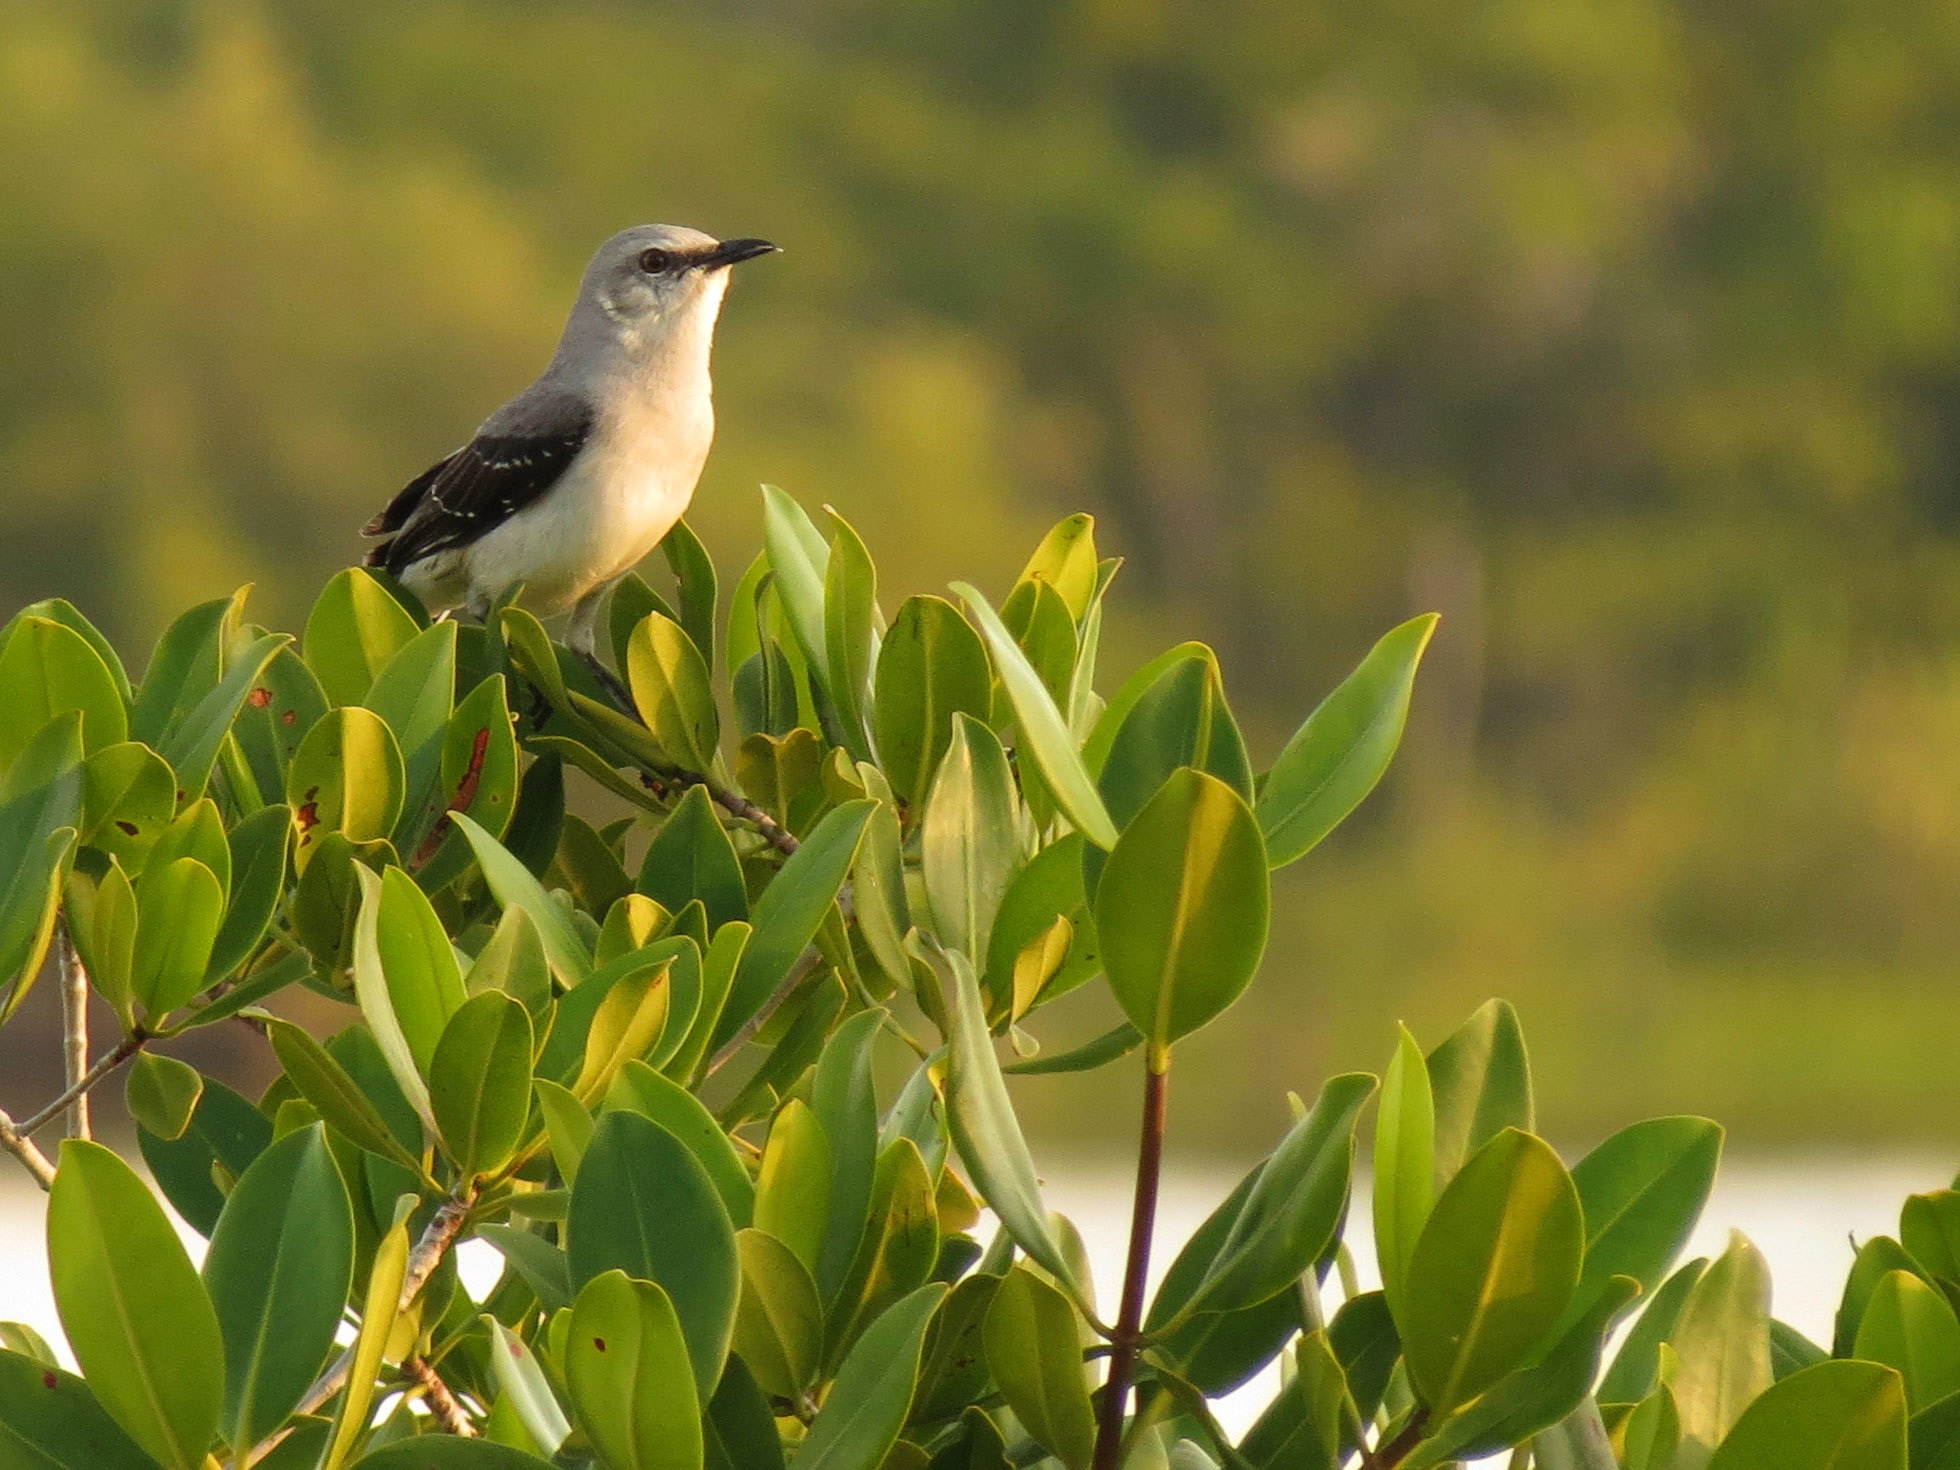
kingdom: Animalia
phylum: Chordata
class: Aves
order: Passeriformes
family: Mimidae
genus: Mimus
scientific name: Mimus gilvus
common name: Tropical mockingbird
